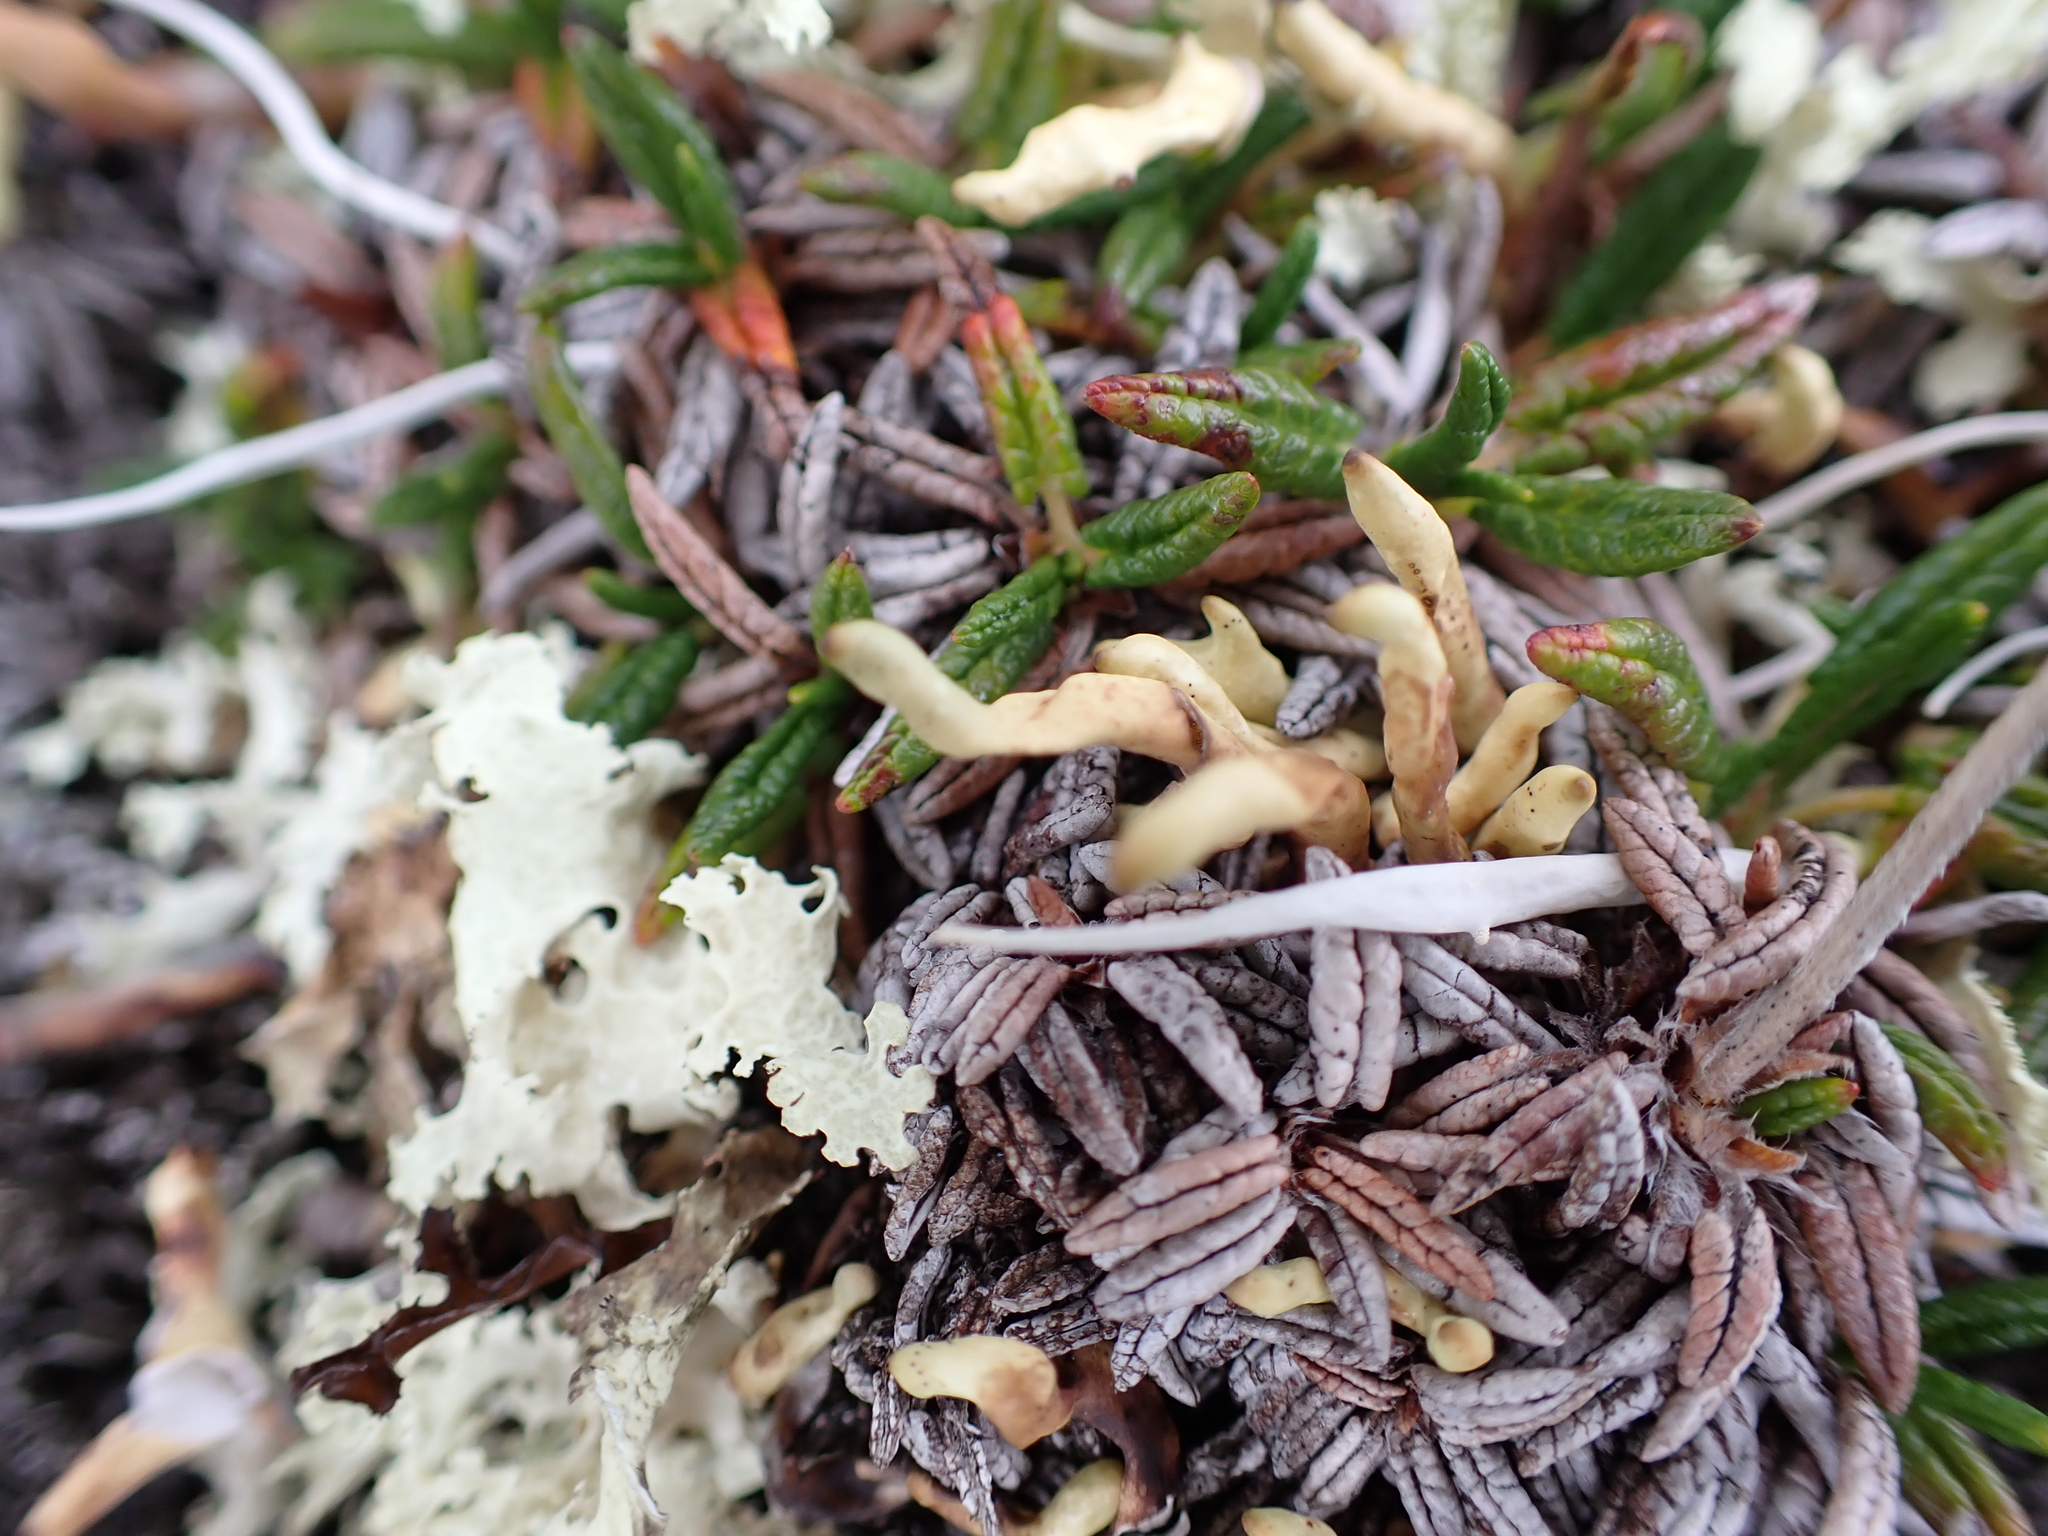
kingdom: Fungi
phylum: Ascomycota
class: Lecanoromycetes
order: Lecanorales
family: Parmeliaceae
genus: Dactylina
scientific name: Dactylina arctica
